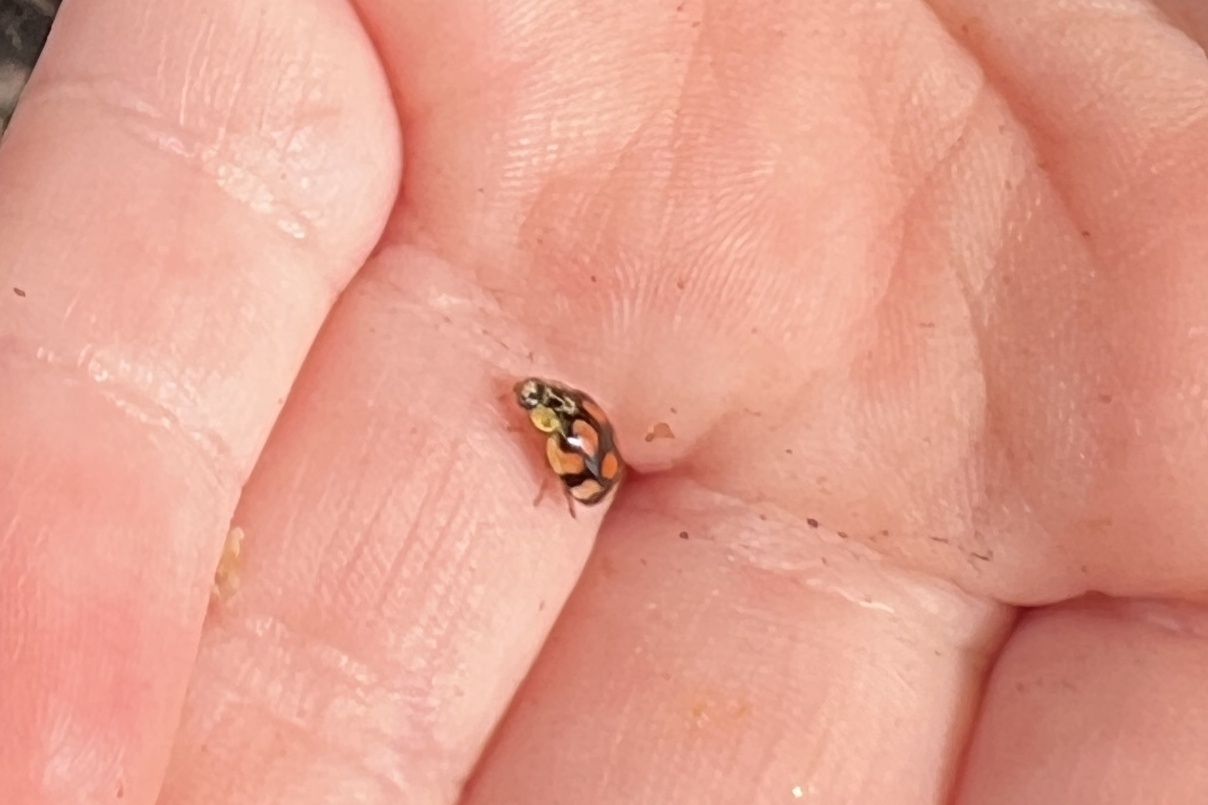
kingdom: Animalia
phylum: Arthropoda
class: Insecta
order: Coleoptera
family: Coccinellidae
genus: Adalia
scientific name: Adalia decempunctata
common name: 10-spot ladybird
